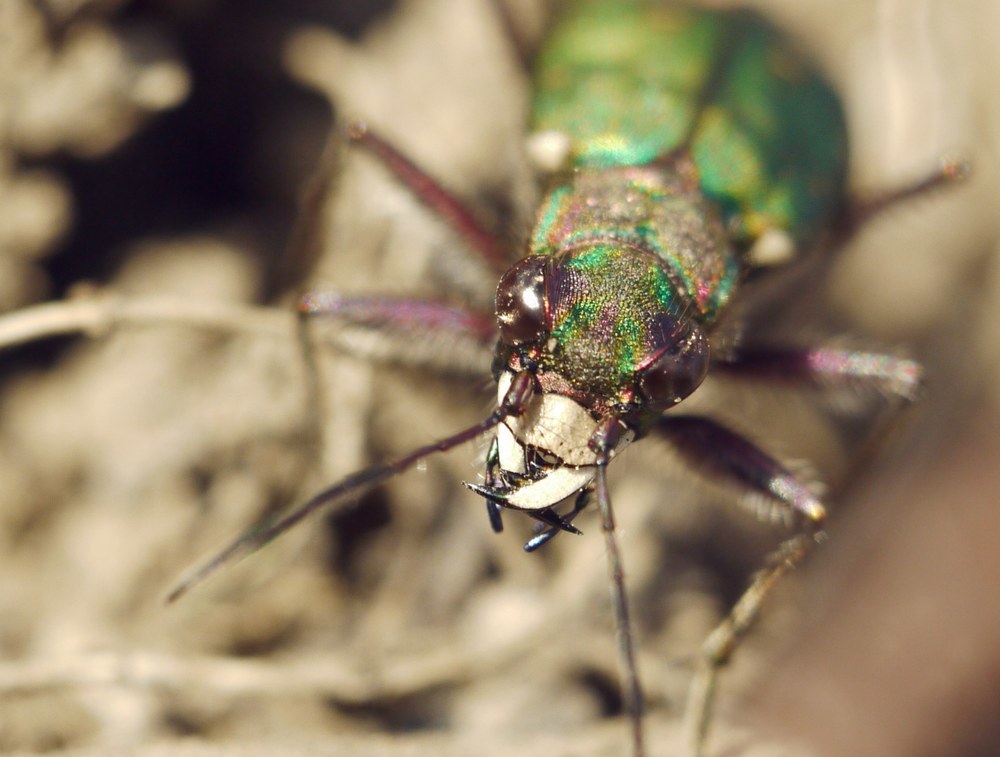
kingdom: Animalia
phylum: Arthropoda
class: Insecta
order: Coleoptera
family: Carabidae
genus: Cicindela
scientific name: Cicindela campestris
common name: Common tiger beetle
